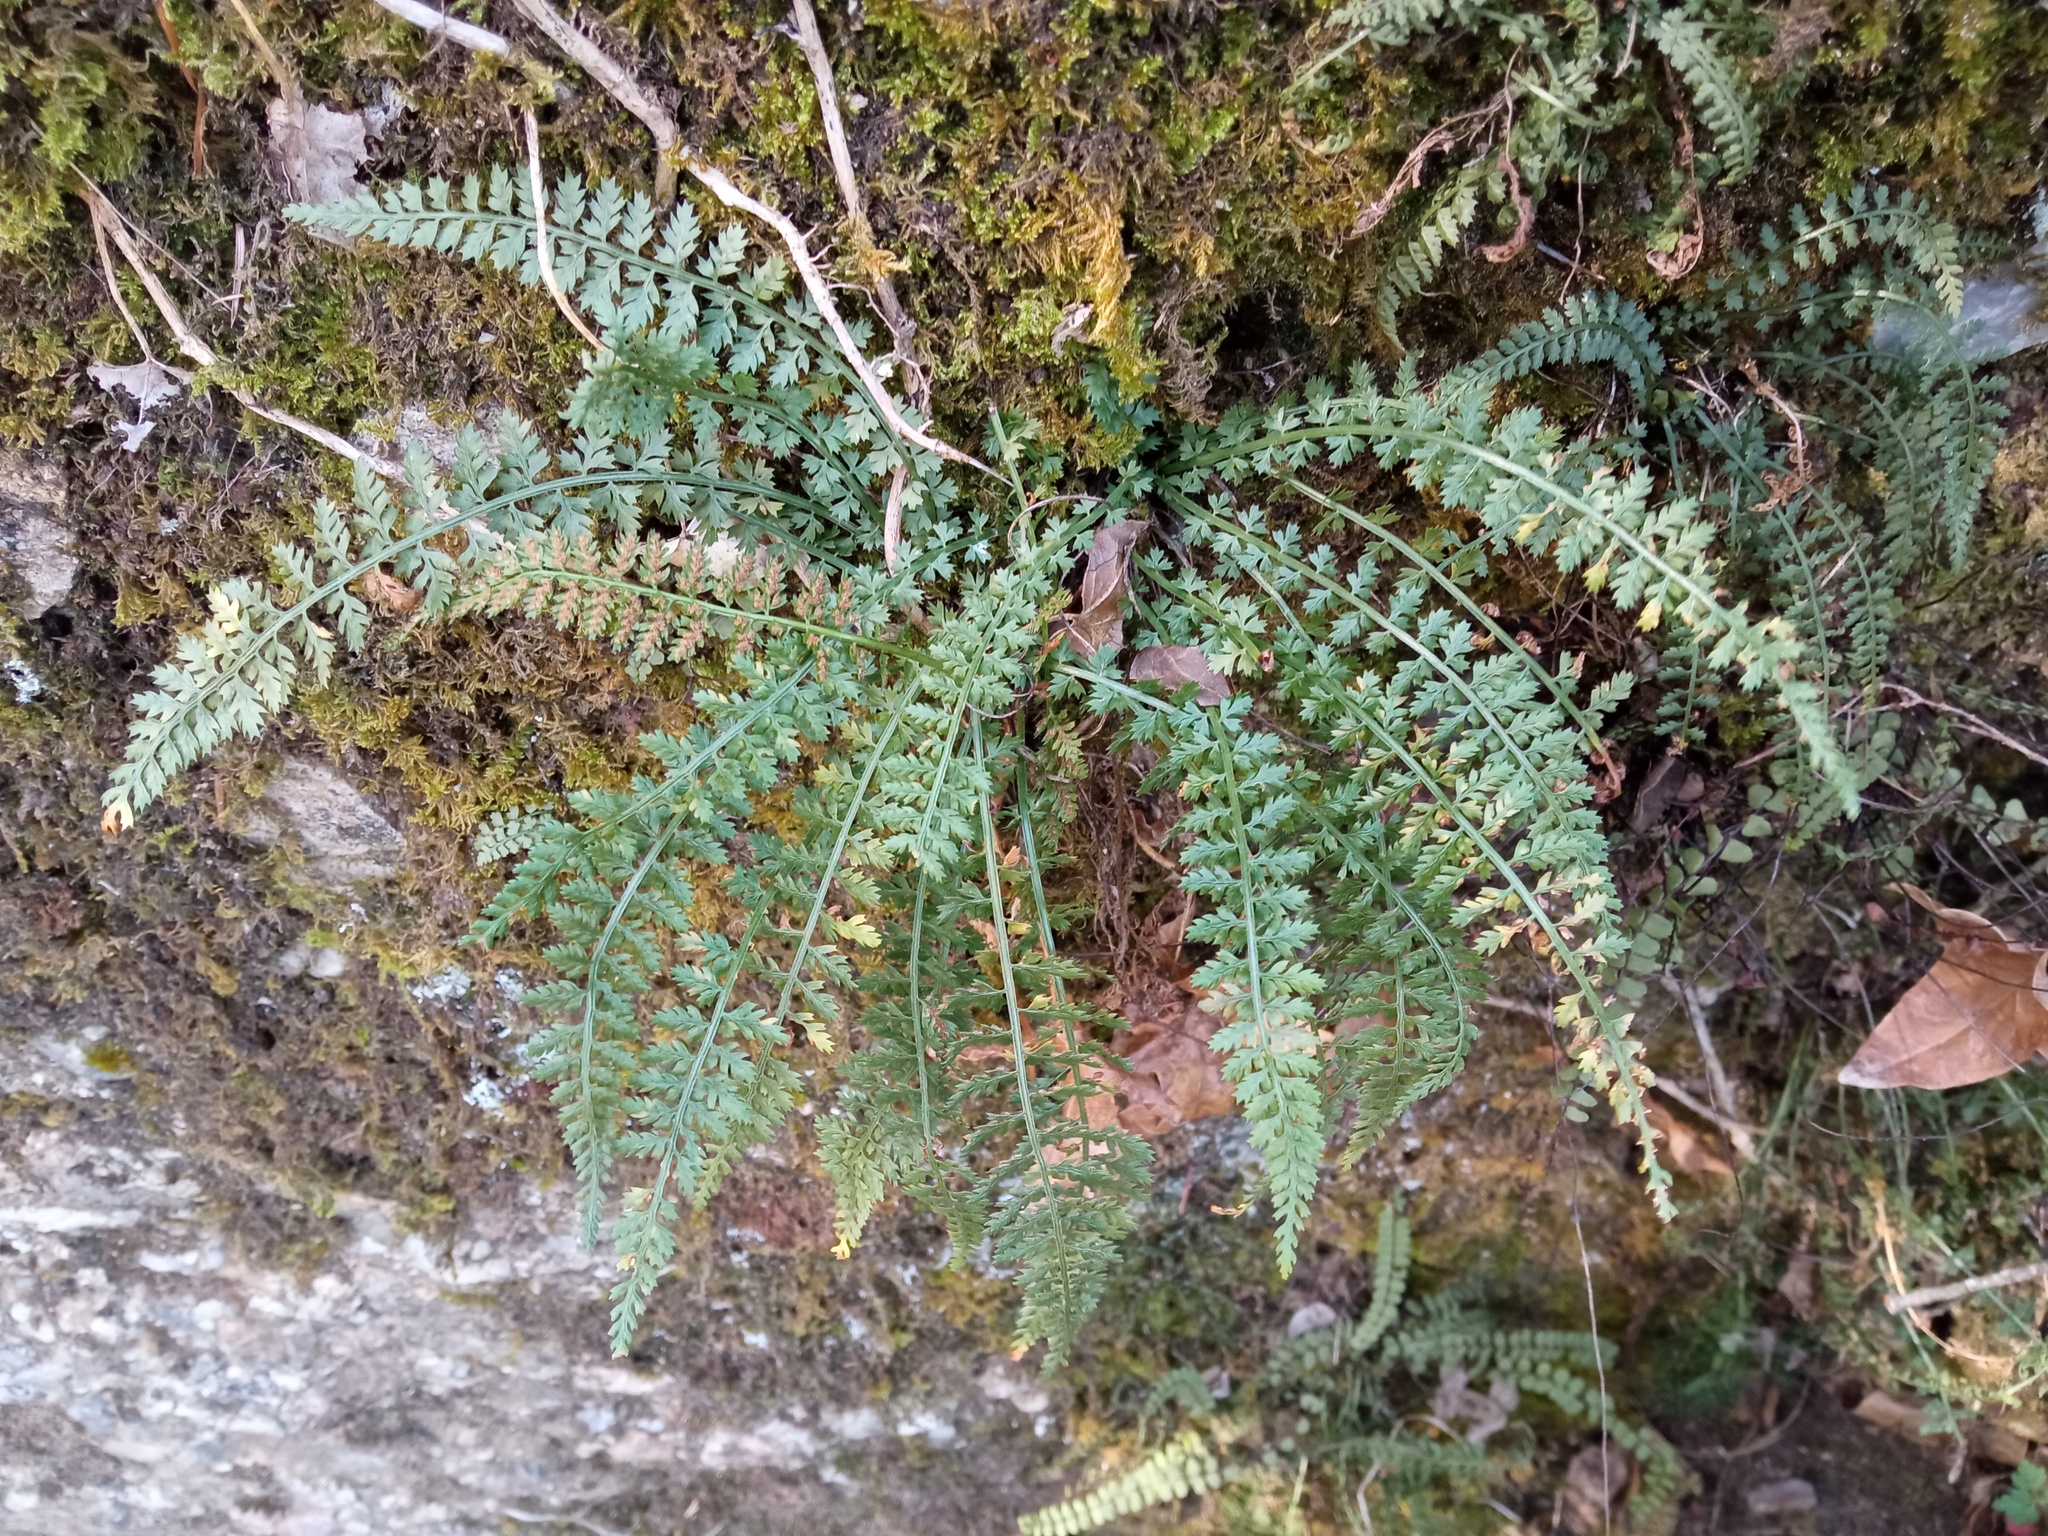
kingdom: Plantae
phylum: Tracheophyta
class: Polypodiopsida
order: Polypodiales
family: Aspleniaceae
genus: Asplenium
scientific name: Asplenium fontanum
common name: Fountain spleenwort
